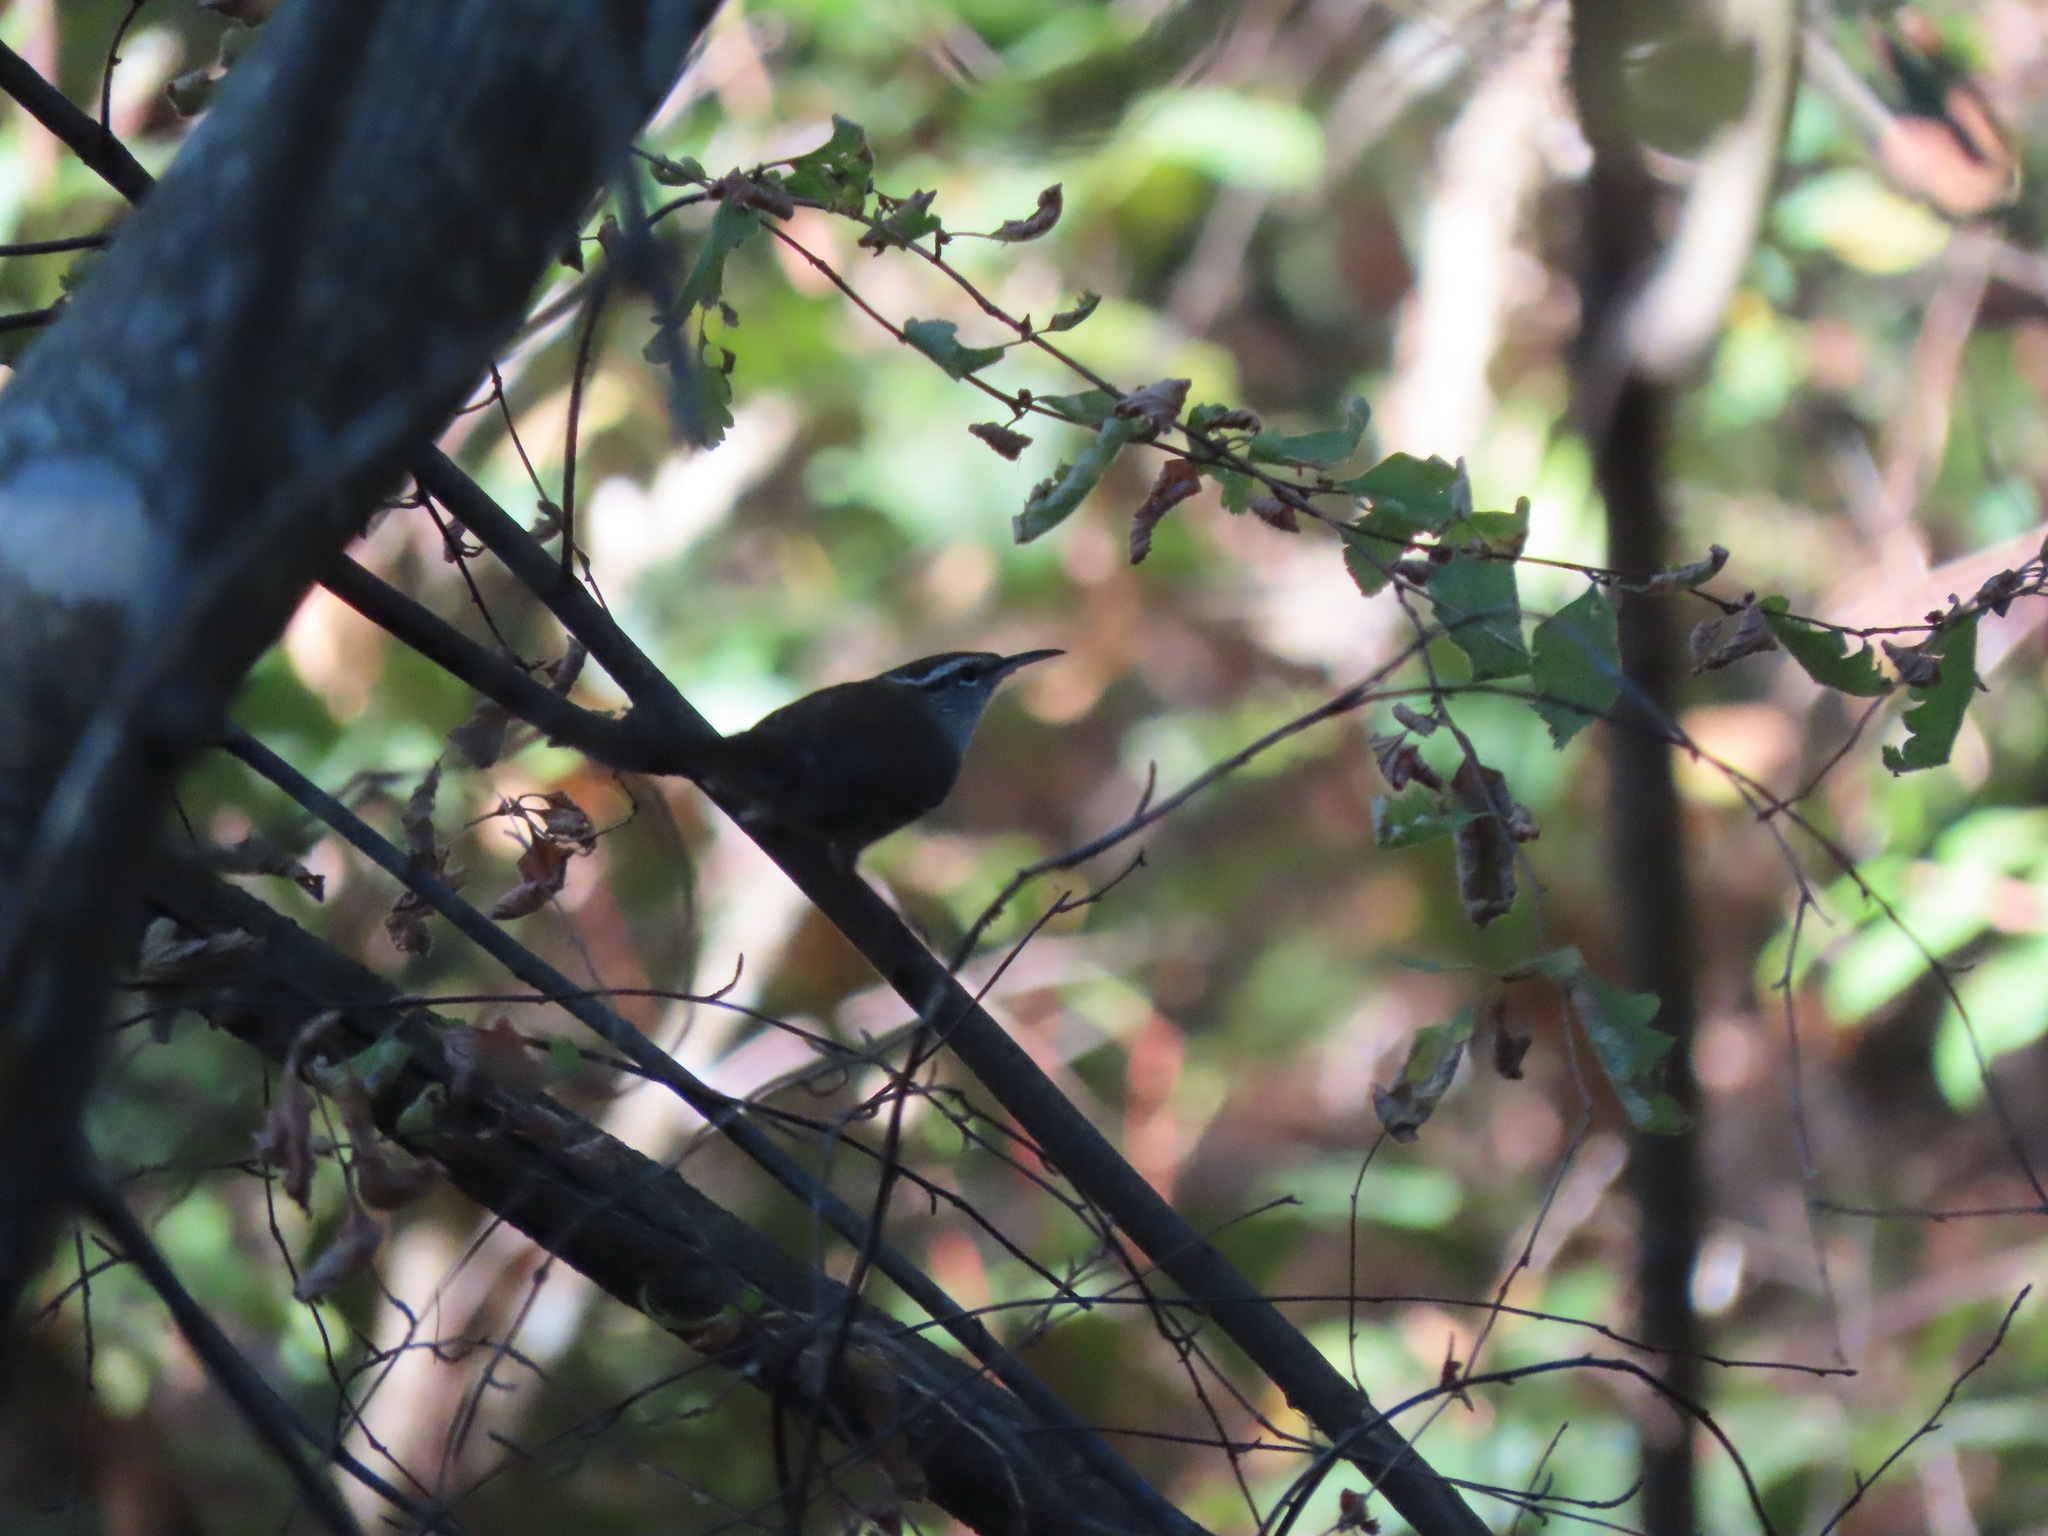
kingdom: Animalia
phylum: Chordata
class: Aves
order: Passeriformes
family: Troglodytidae
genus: Thryomanes
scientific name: Thryomanes bewickii
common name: Bewick's wren
